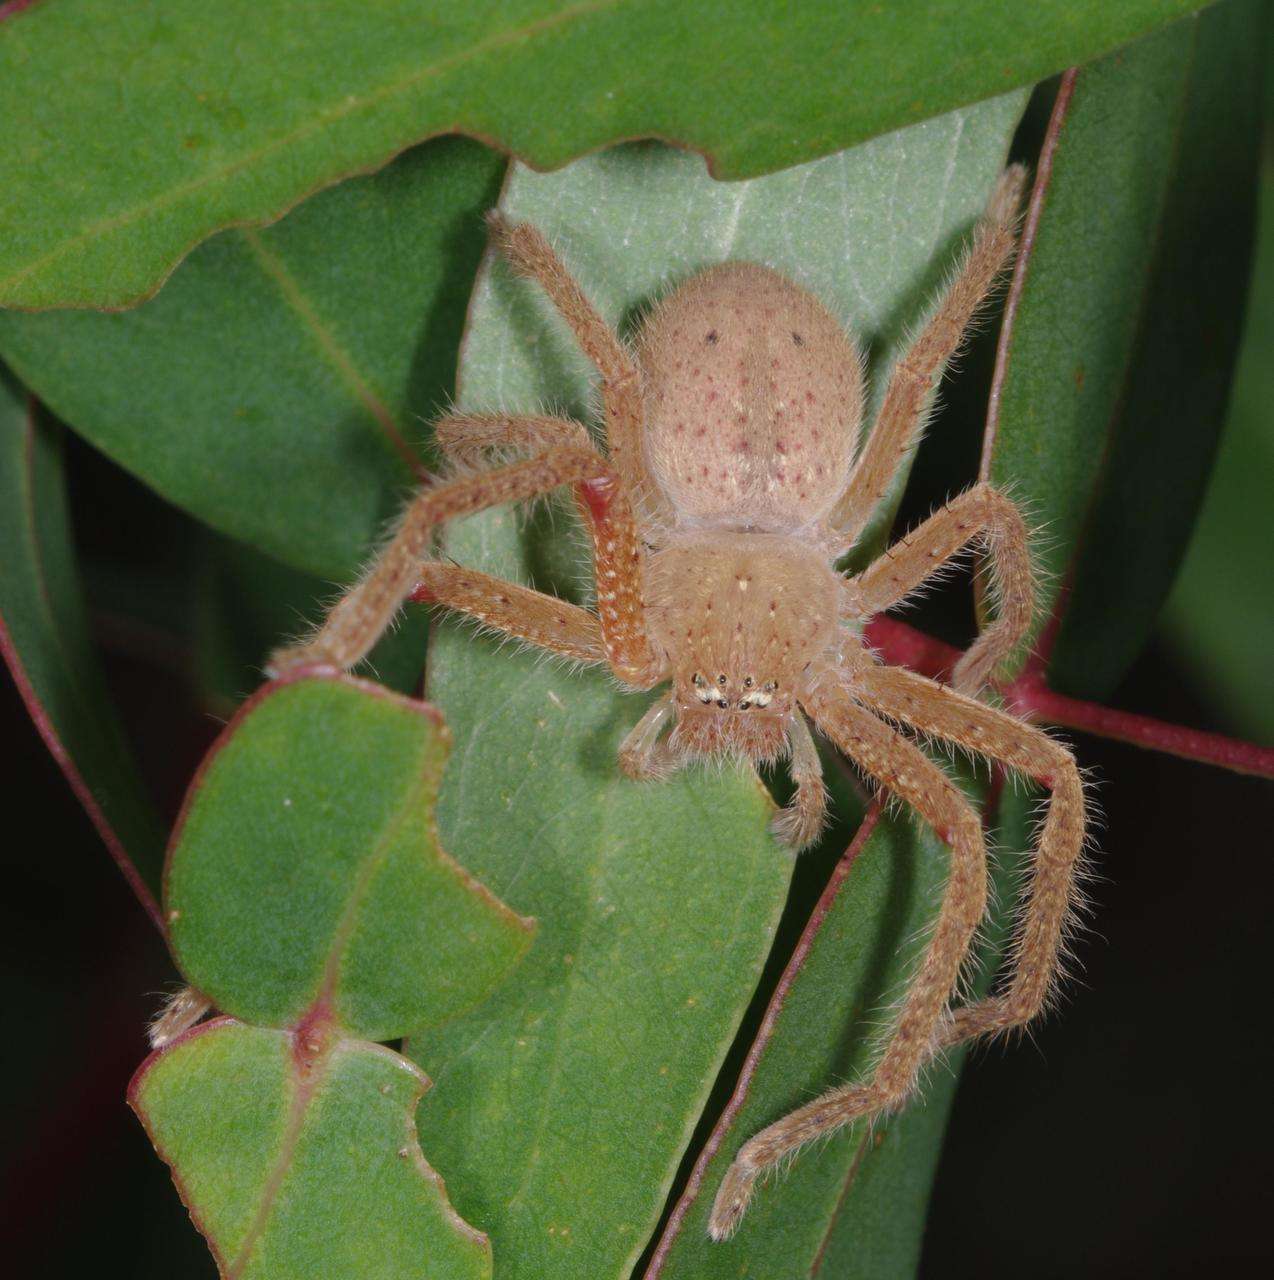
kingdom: Animalia
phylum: Arthropoda
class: Arachnida
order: Araneae
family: Sparassidae
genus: Neosparassus
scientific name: Neosparassus diana
